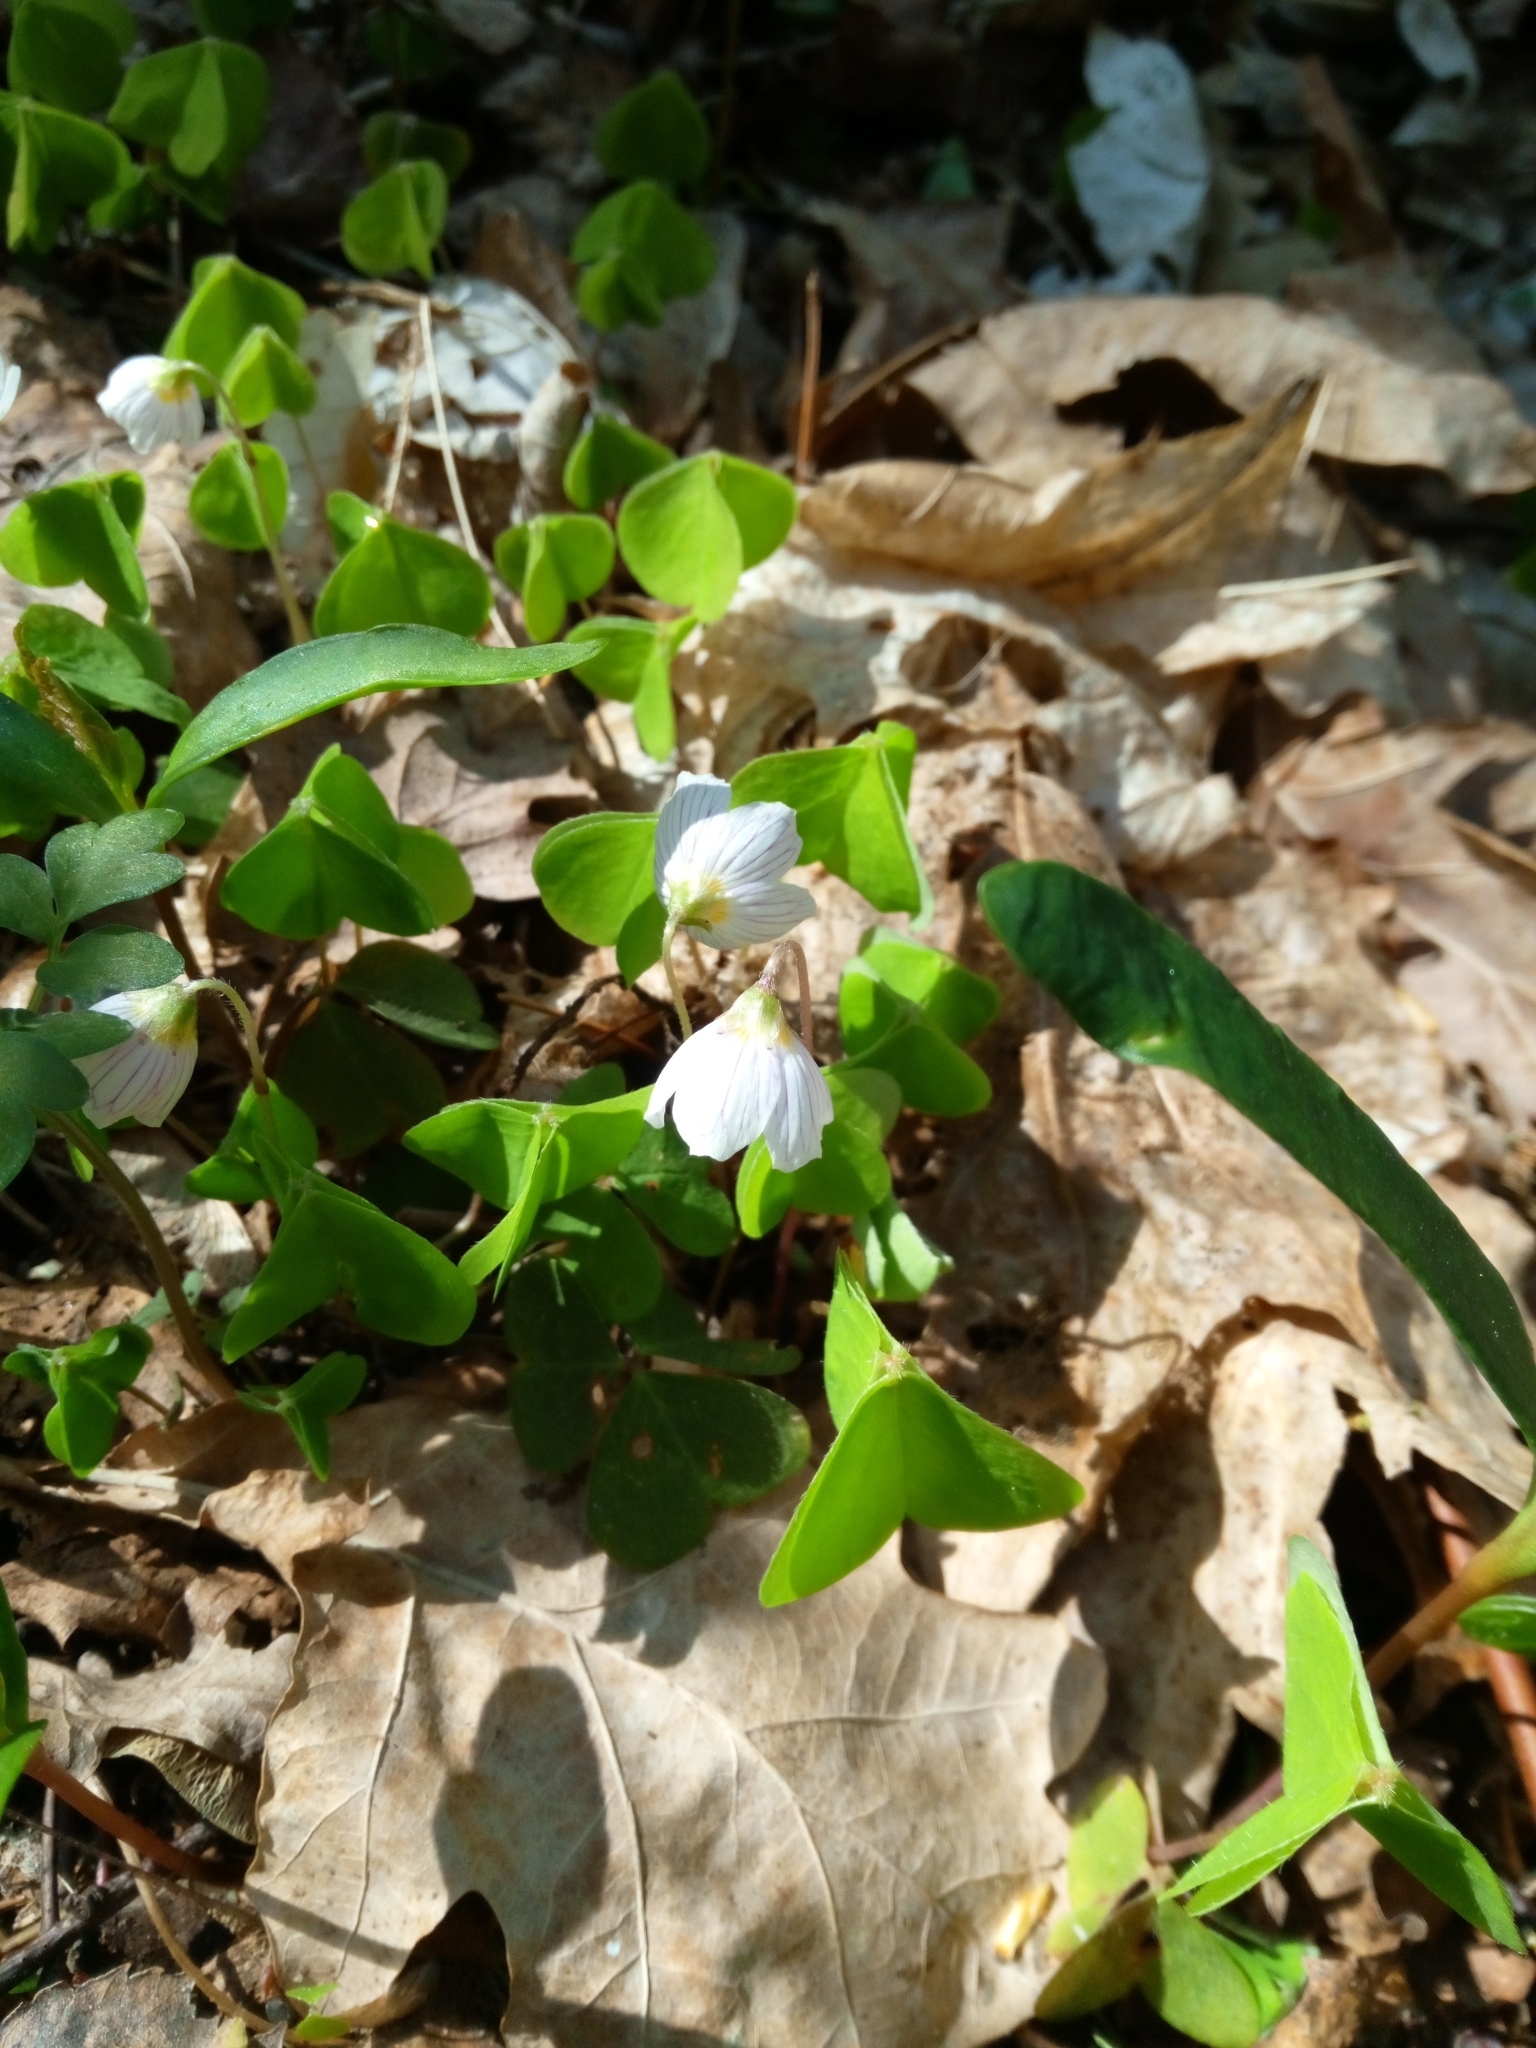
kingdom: Plantae
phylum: Tracheophyta
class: Magnoliopsida
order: Oxalidales
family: Oxalidaceae
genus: Oxalis
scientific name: Oxalis acetosella
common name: Wood-sorrel
